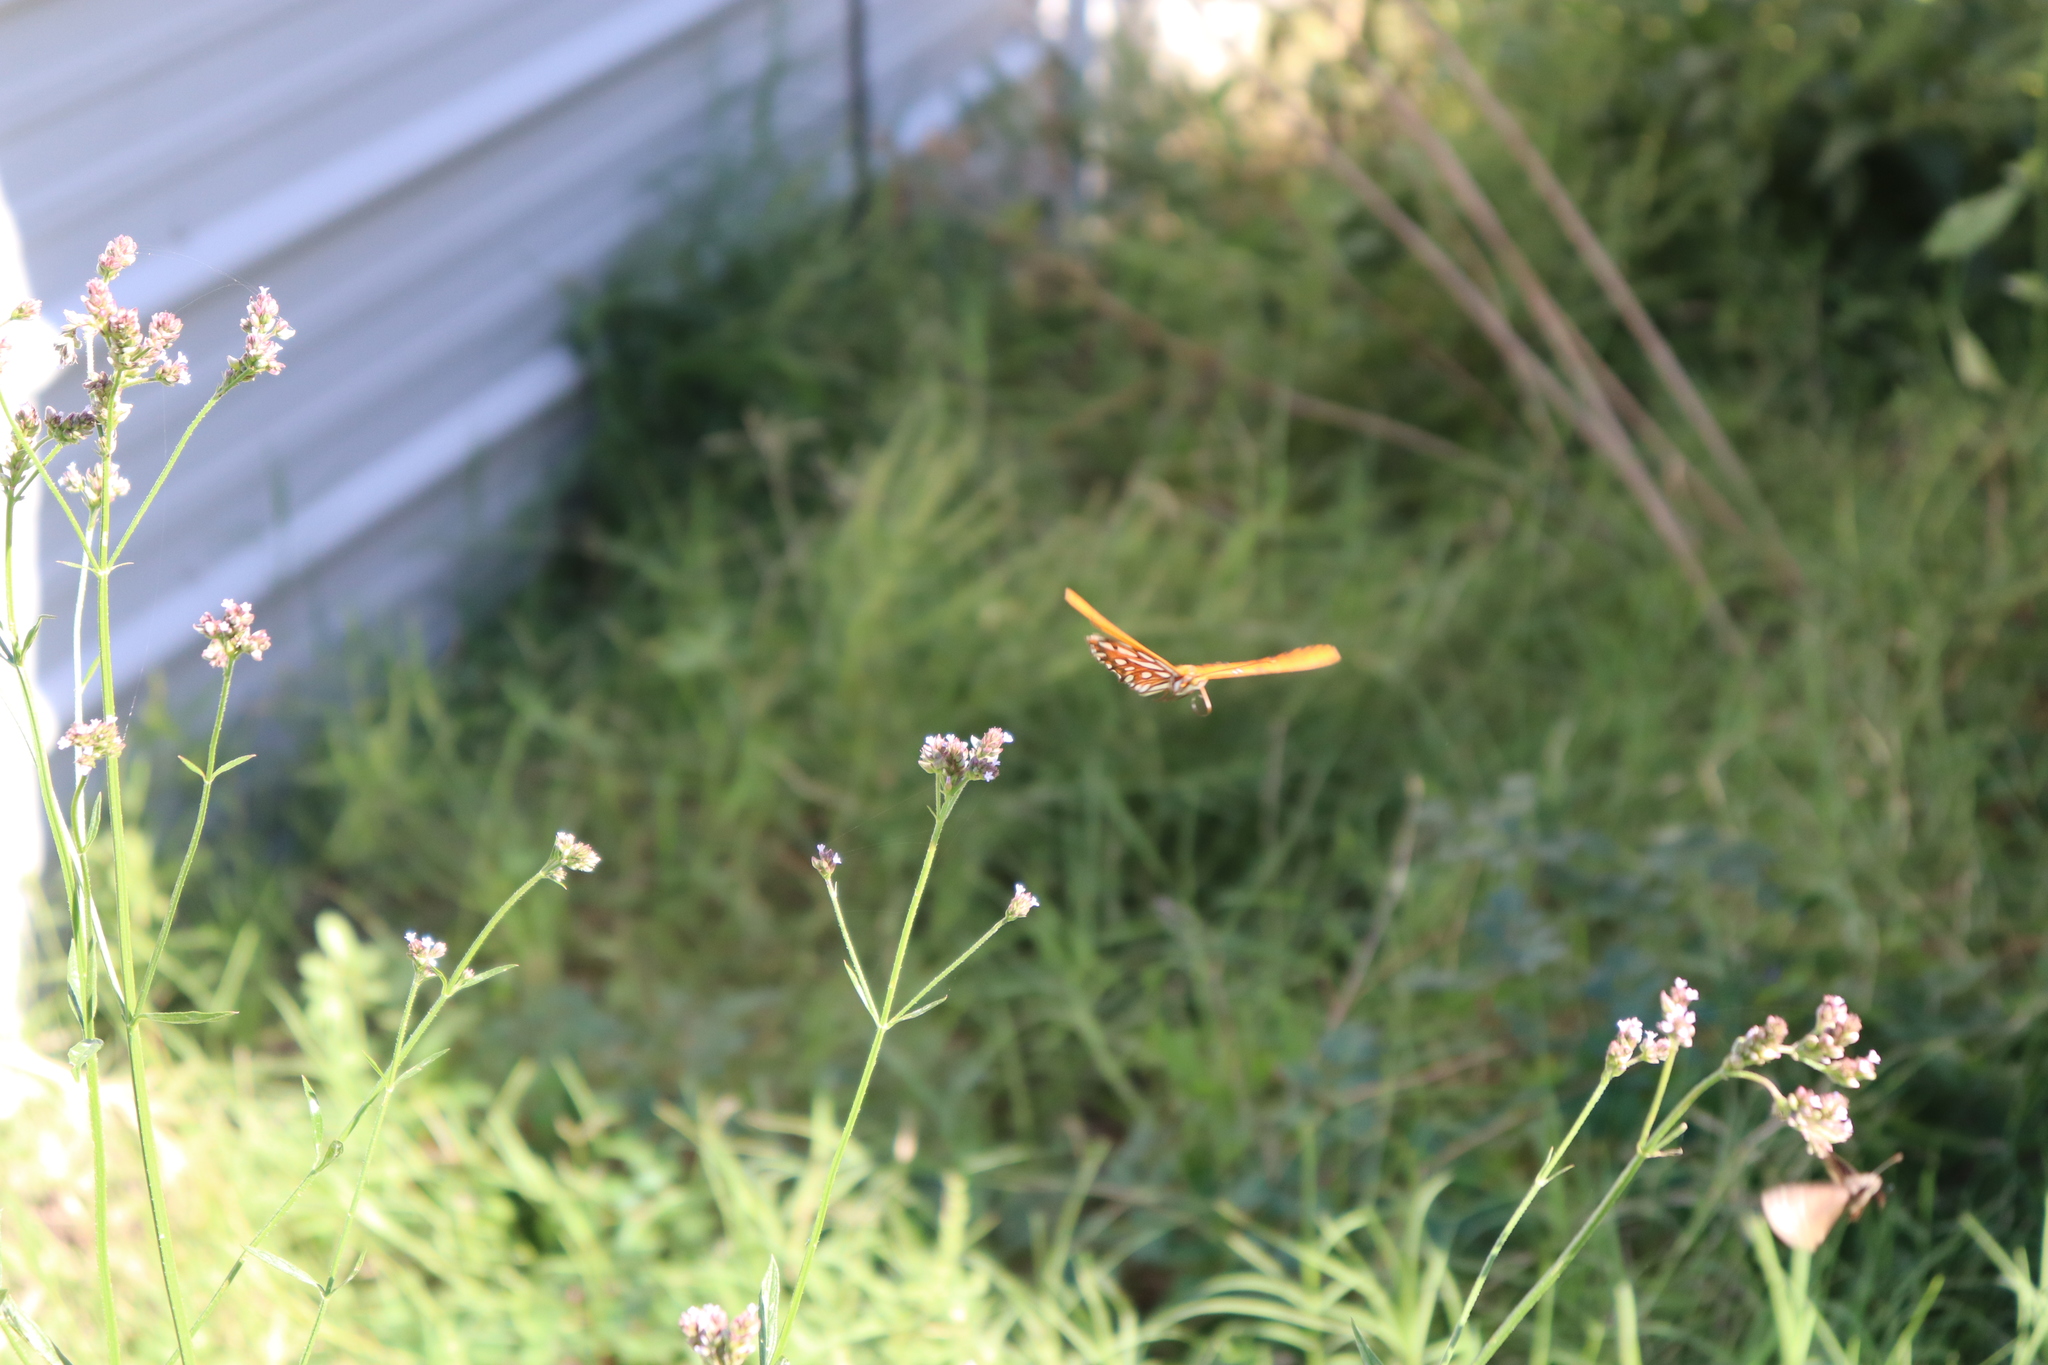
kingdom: Animalia
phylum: Arthropoda
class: Insecta
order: Lepidoptera
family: Nymphalidae
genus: Dione
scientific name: Dione vanillae
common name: Gulf fritillary
